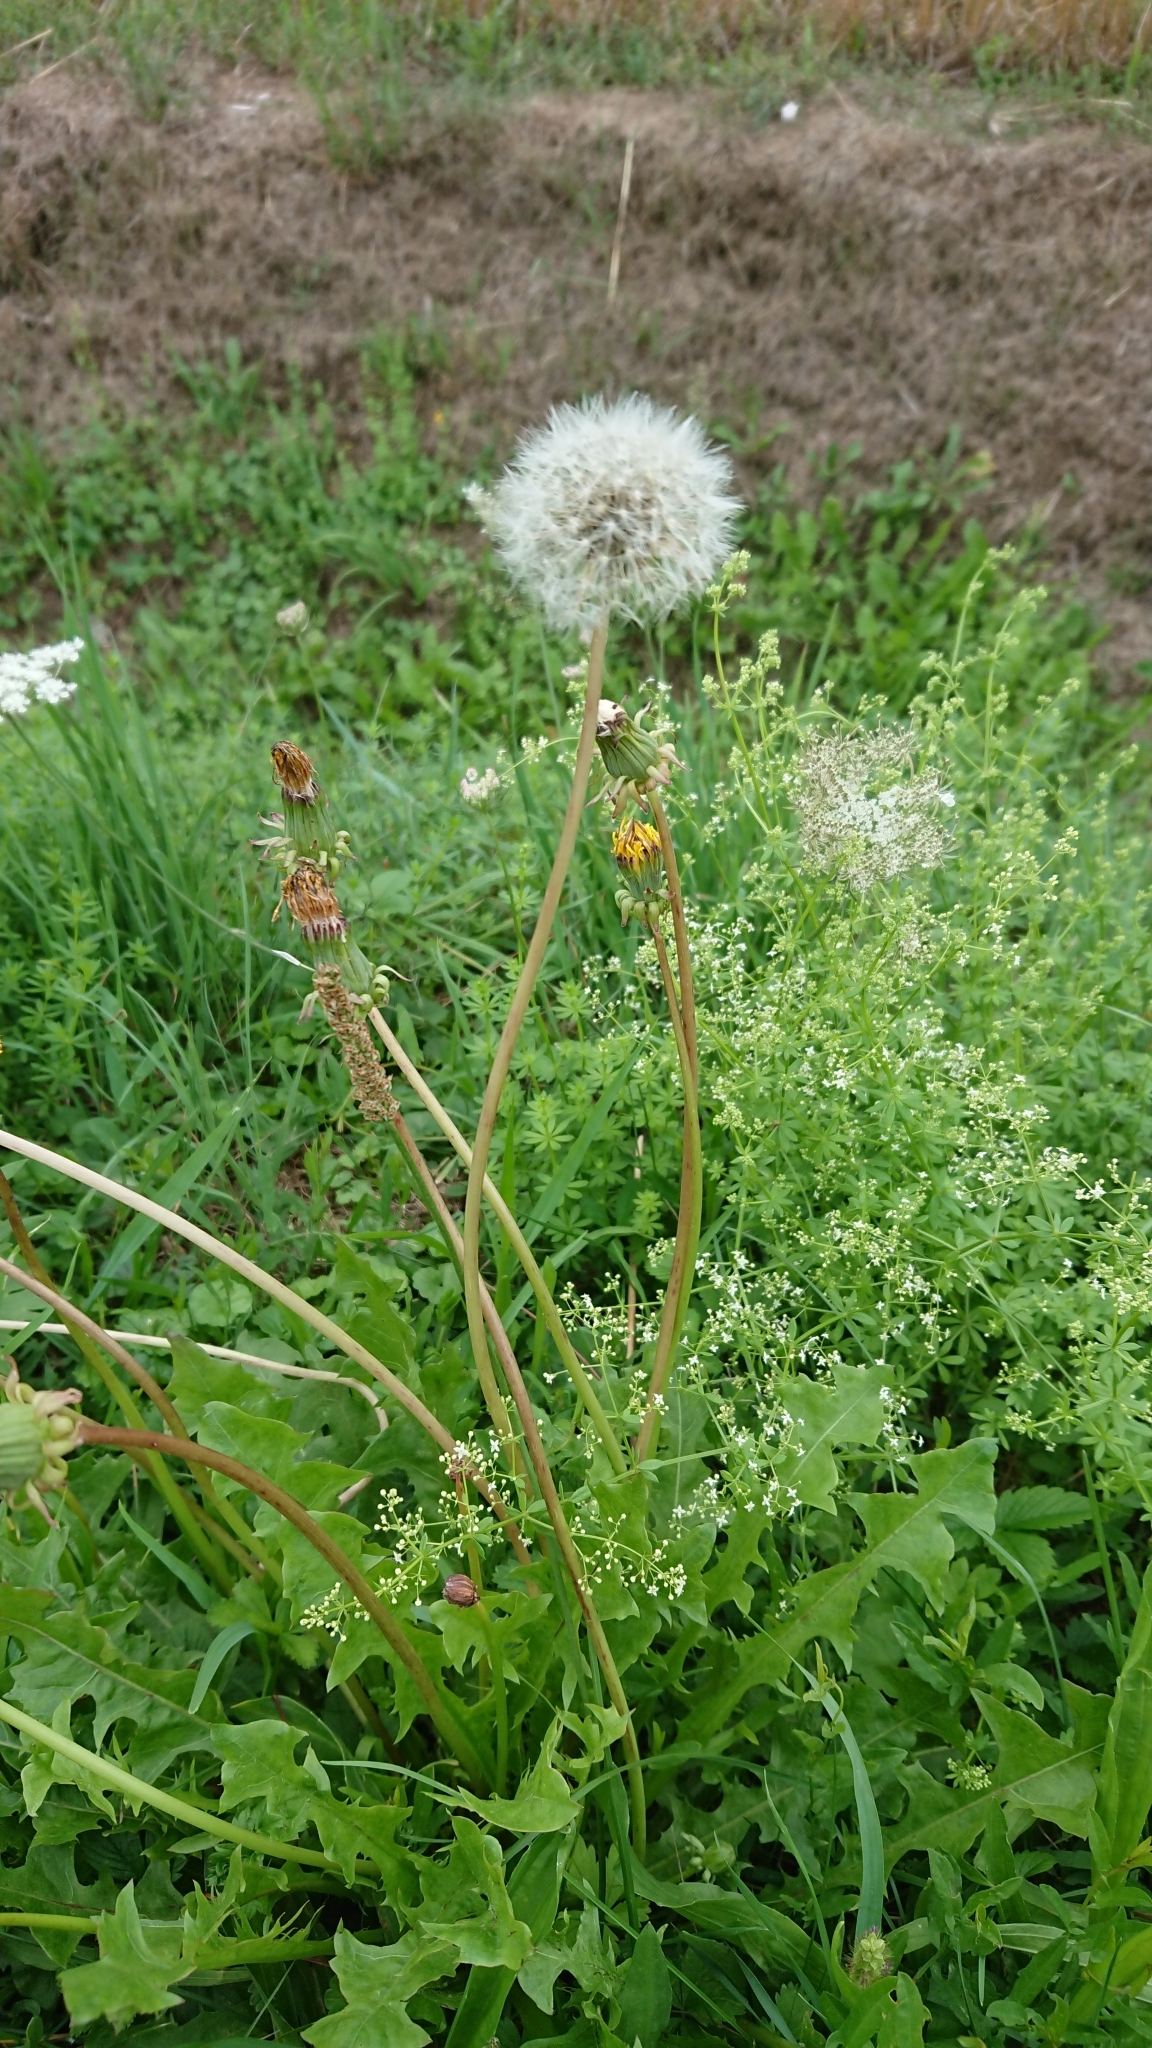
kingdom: Plantae
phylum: Tracheophyta
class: Magnoliopsida
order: Asterales
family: Asteraceae
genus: Taraxacum
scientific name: Taraxacum officinale
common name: Common dandelion
